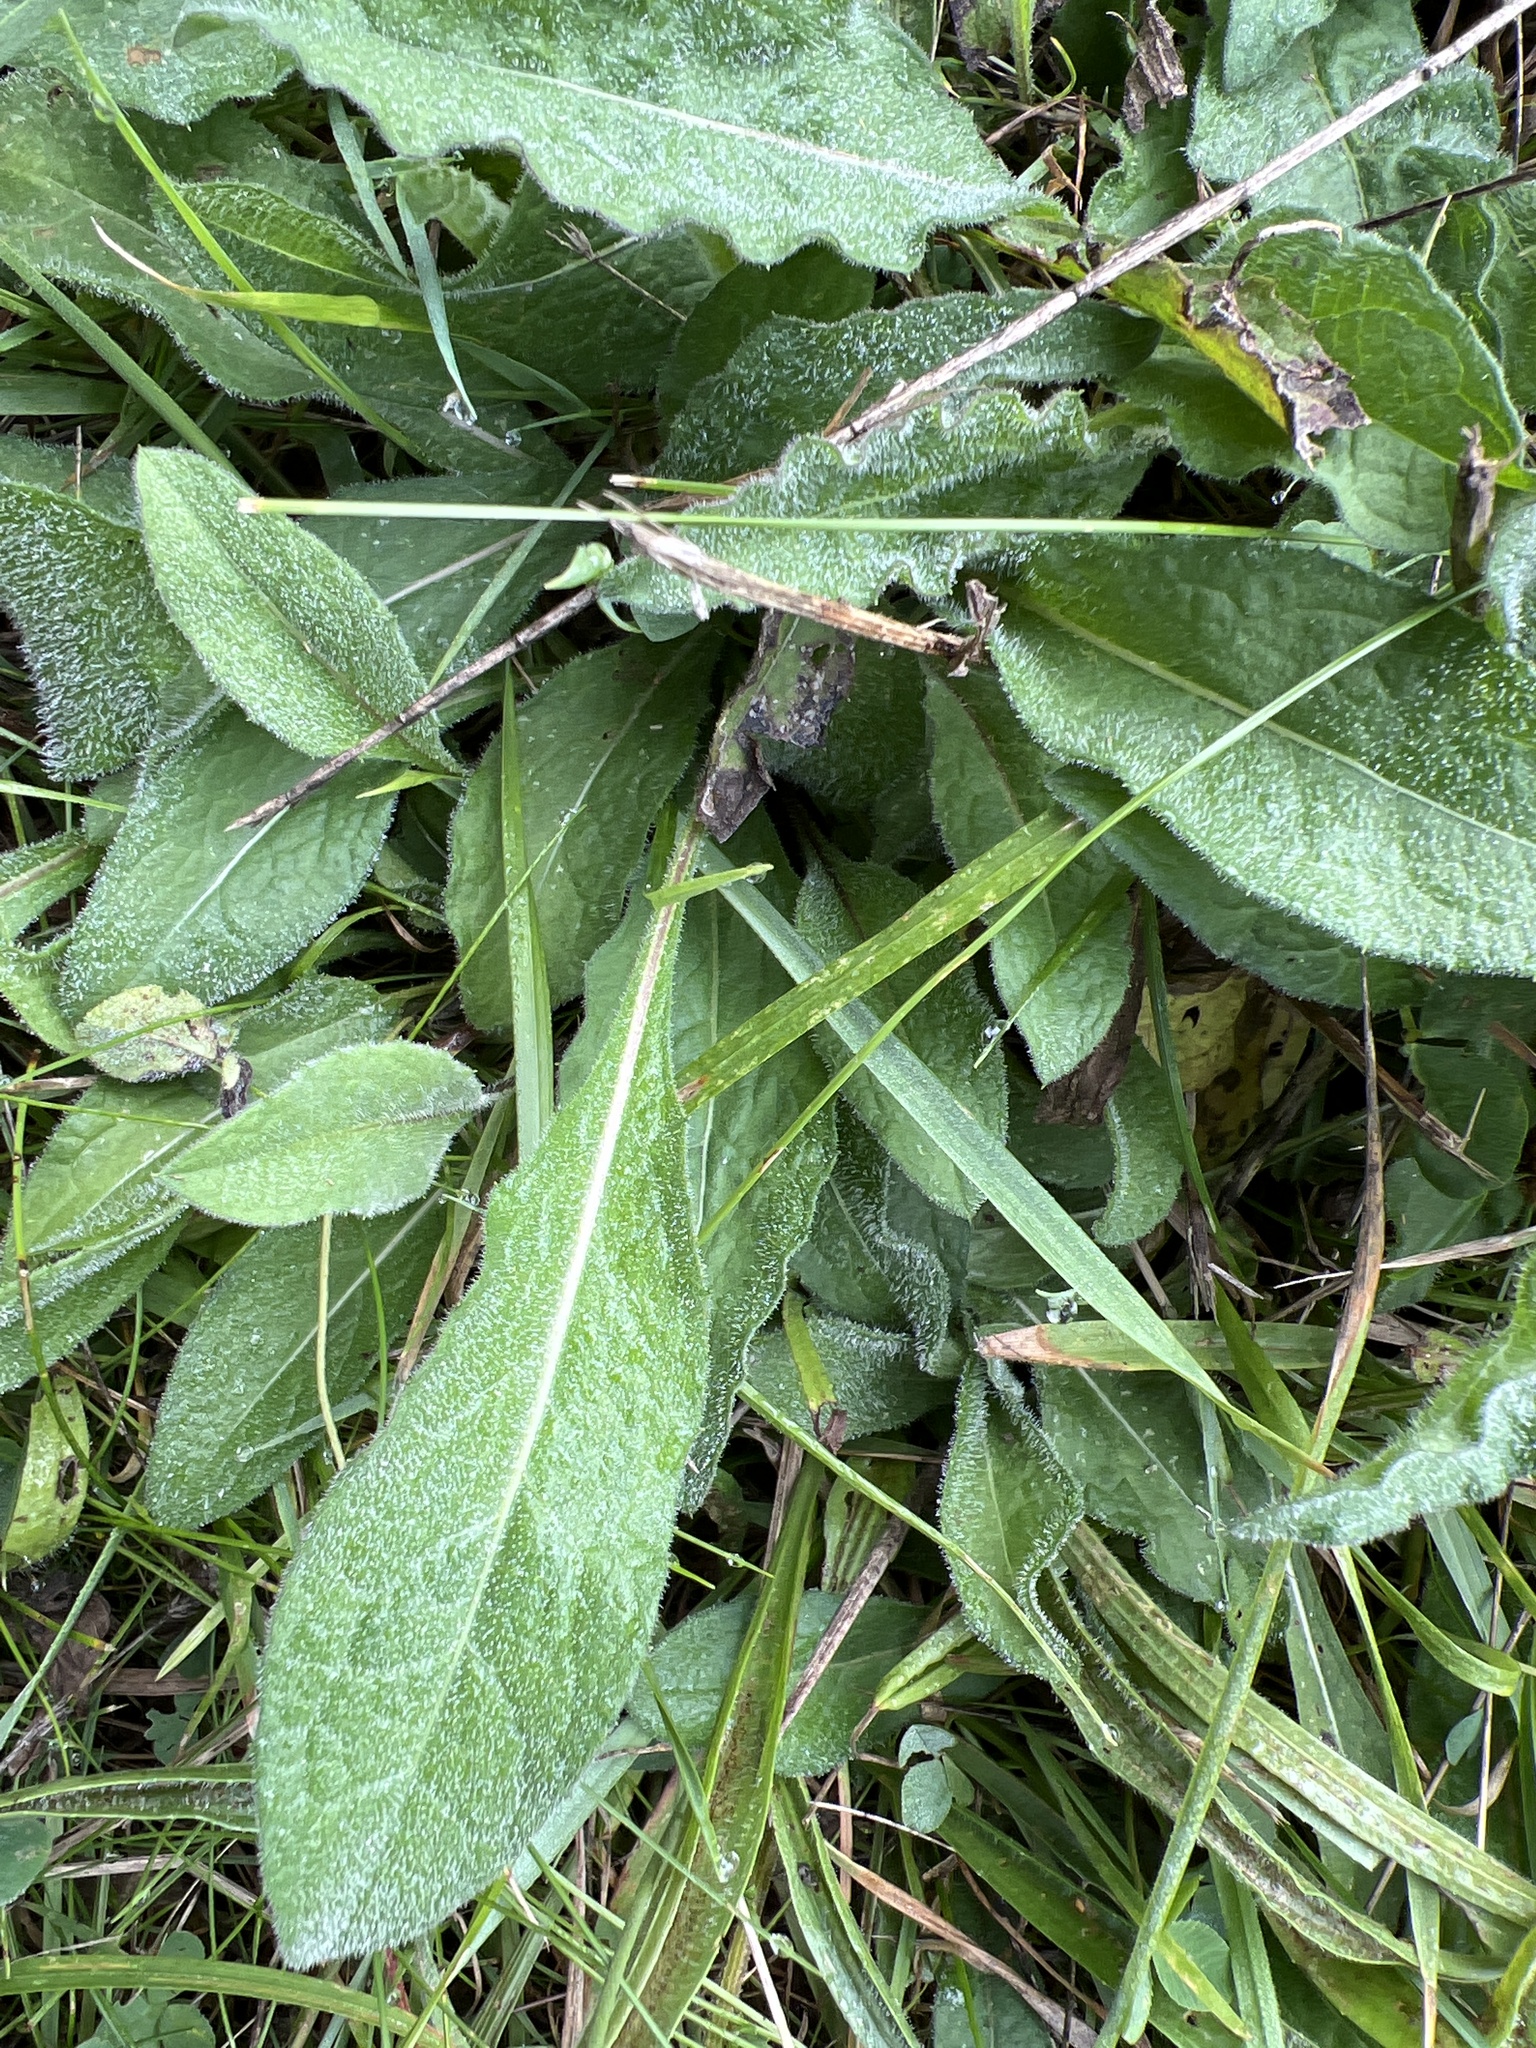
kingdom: Plantae
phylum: Tracheophyta
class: Magnoliopsida
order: Asterales
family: Asteraceae
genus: Centaurea
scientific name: Centaurea nigra
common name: Lesser knapweed
